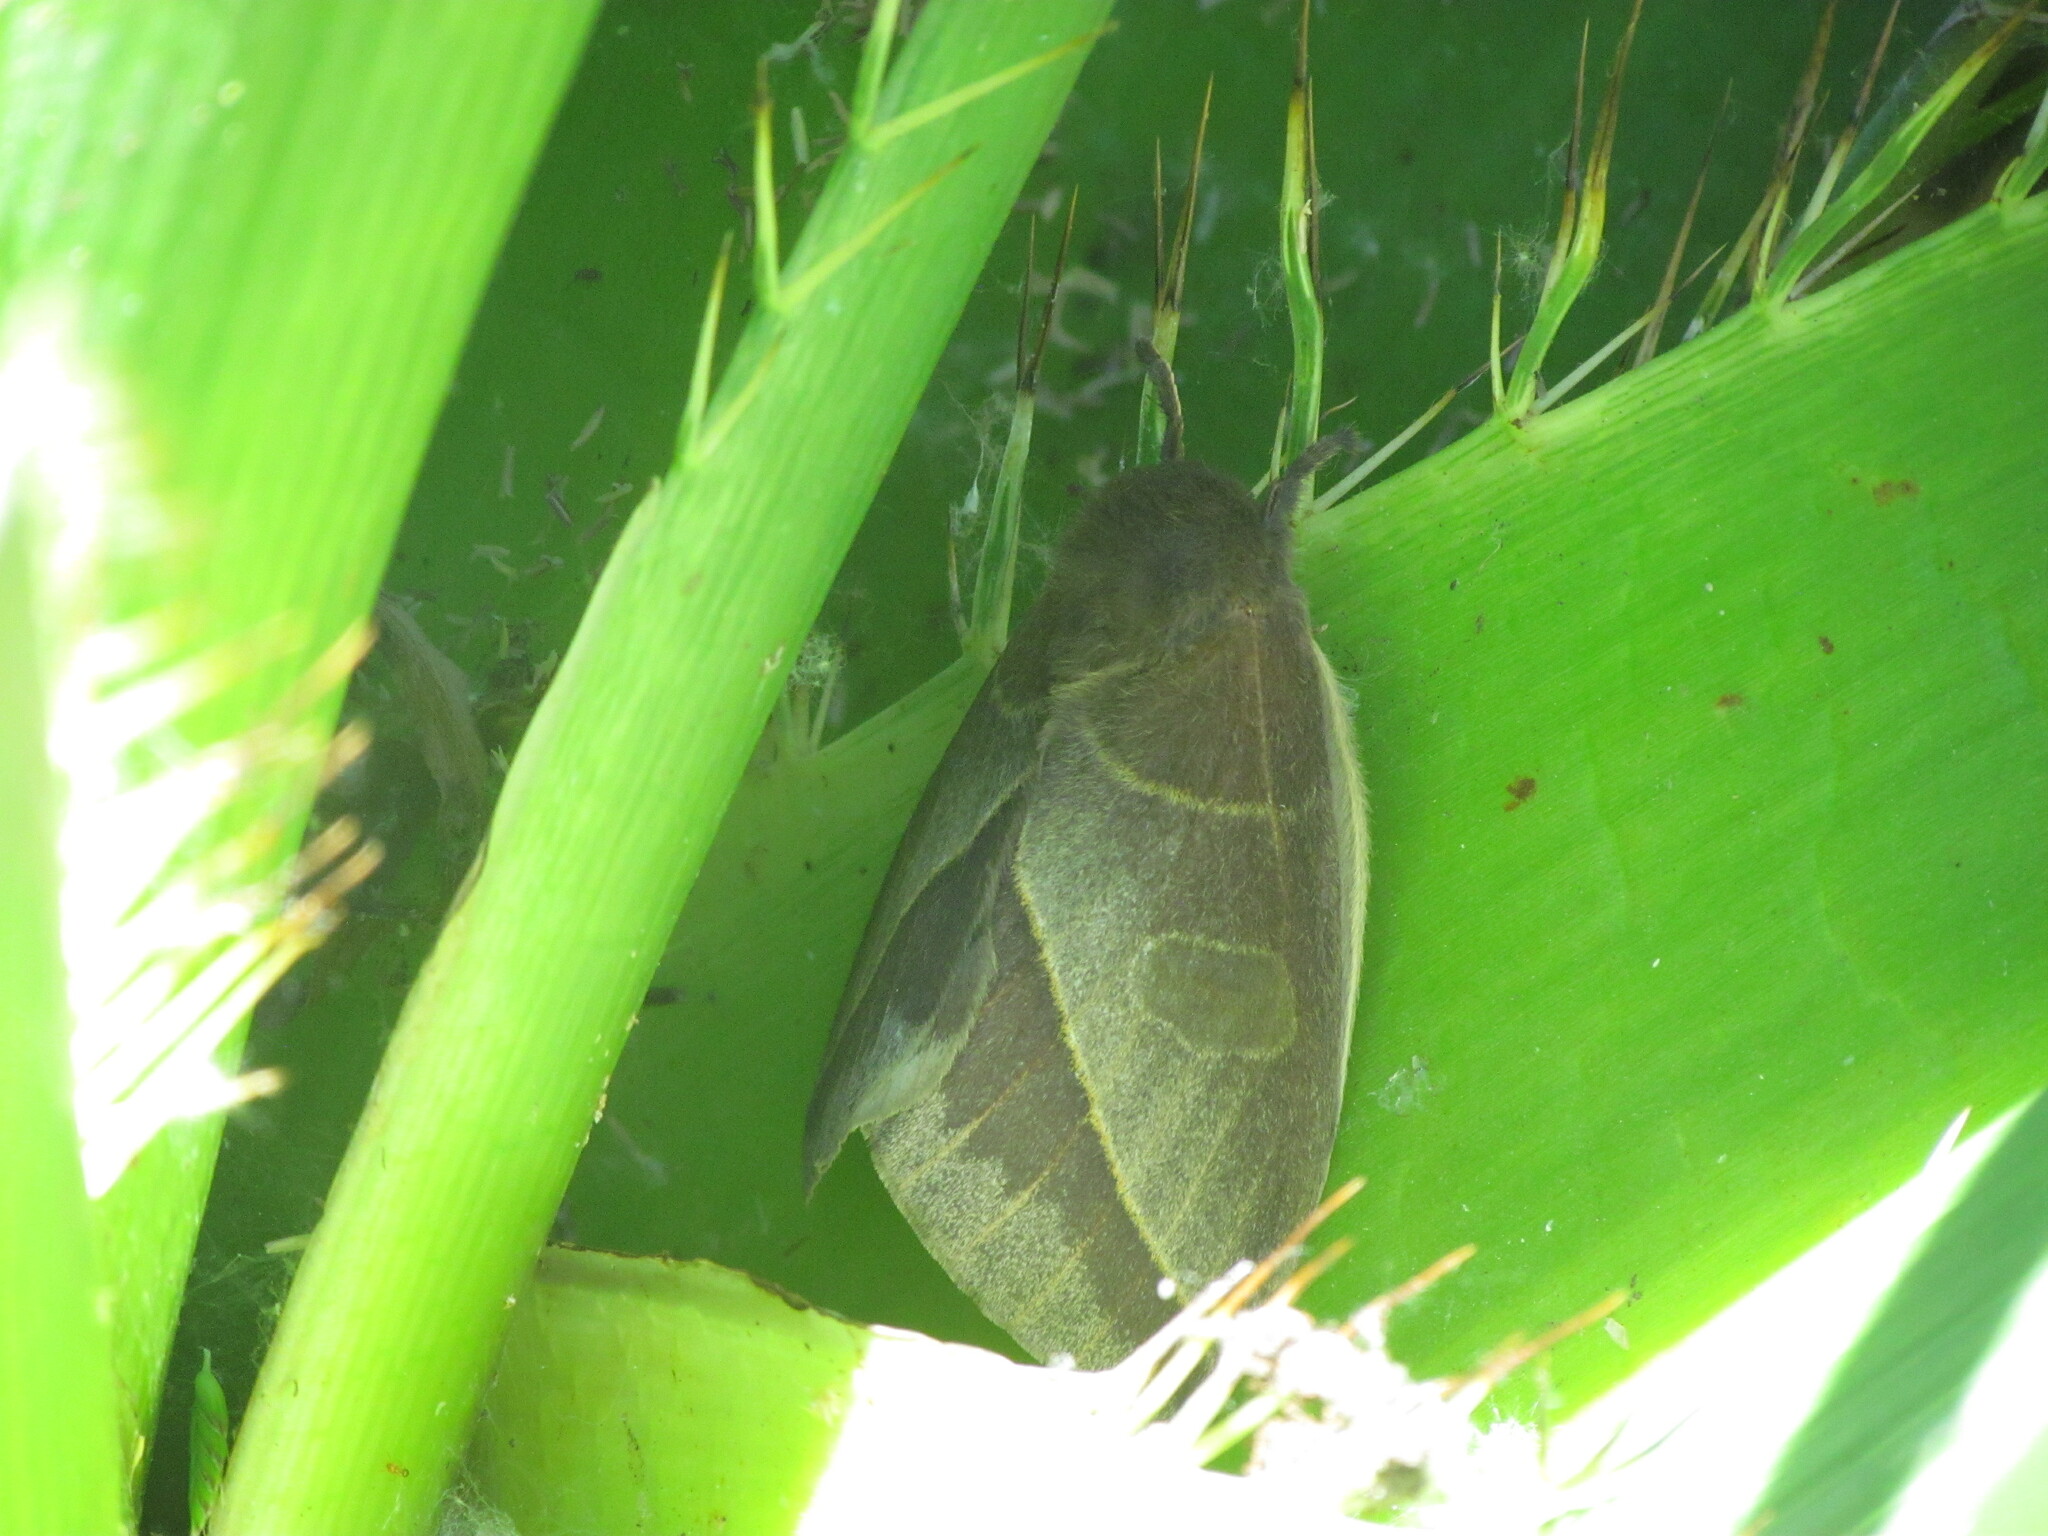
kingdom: Animalia
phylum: Arthropoda
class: Insecta
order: Lepidoptera
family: Saturniidae
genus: Leucanella
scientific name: Leucanella viridescens
